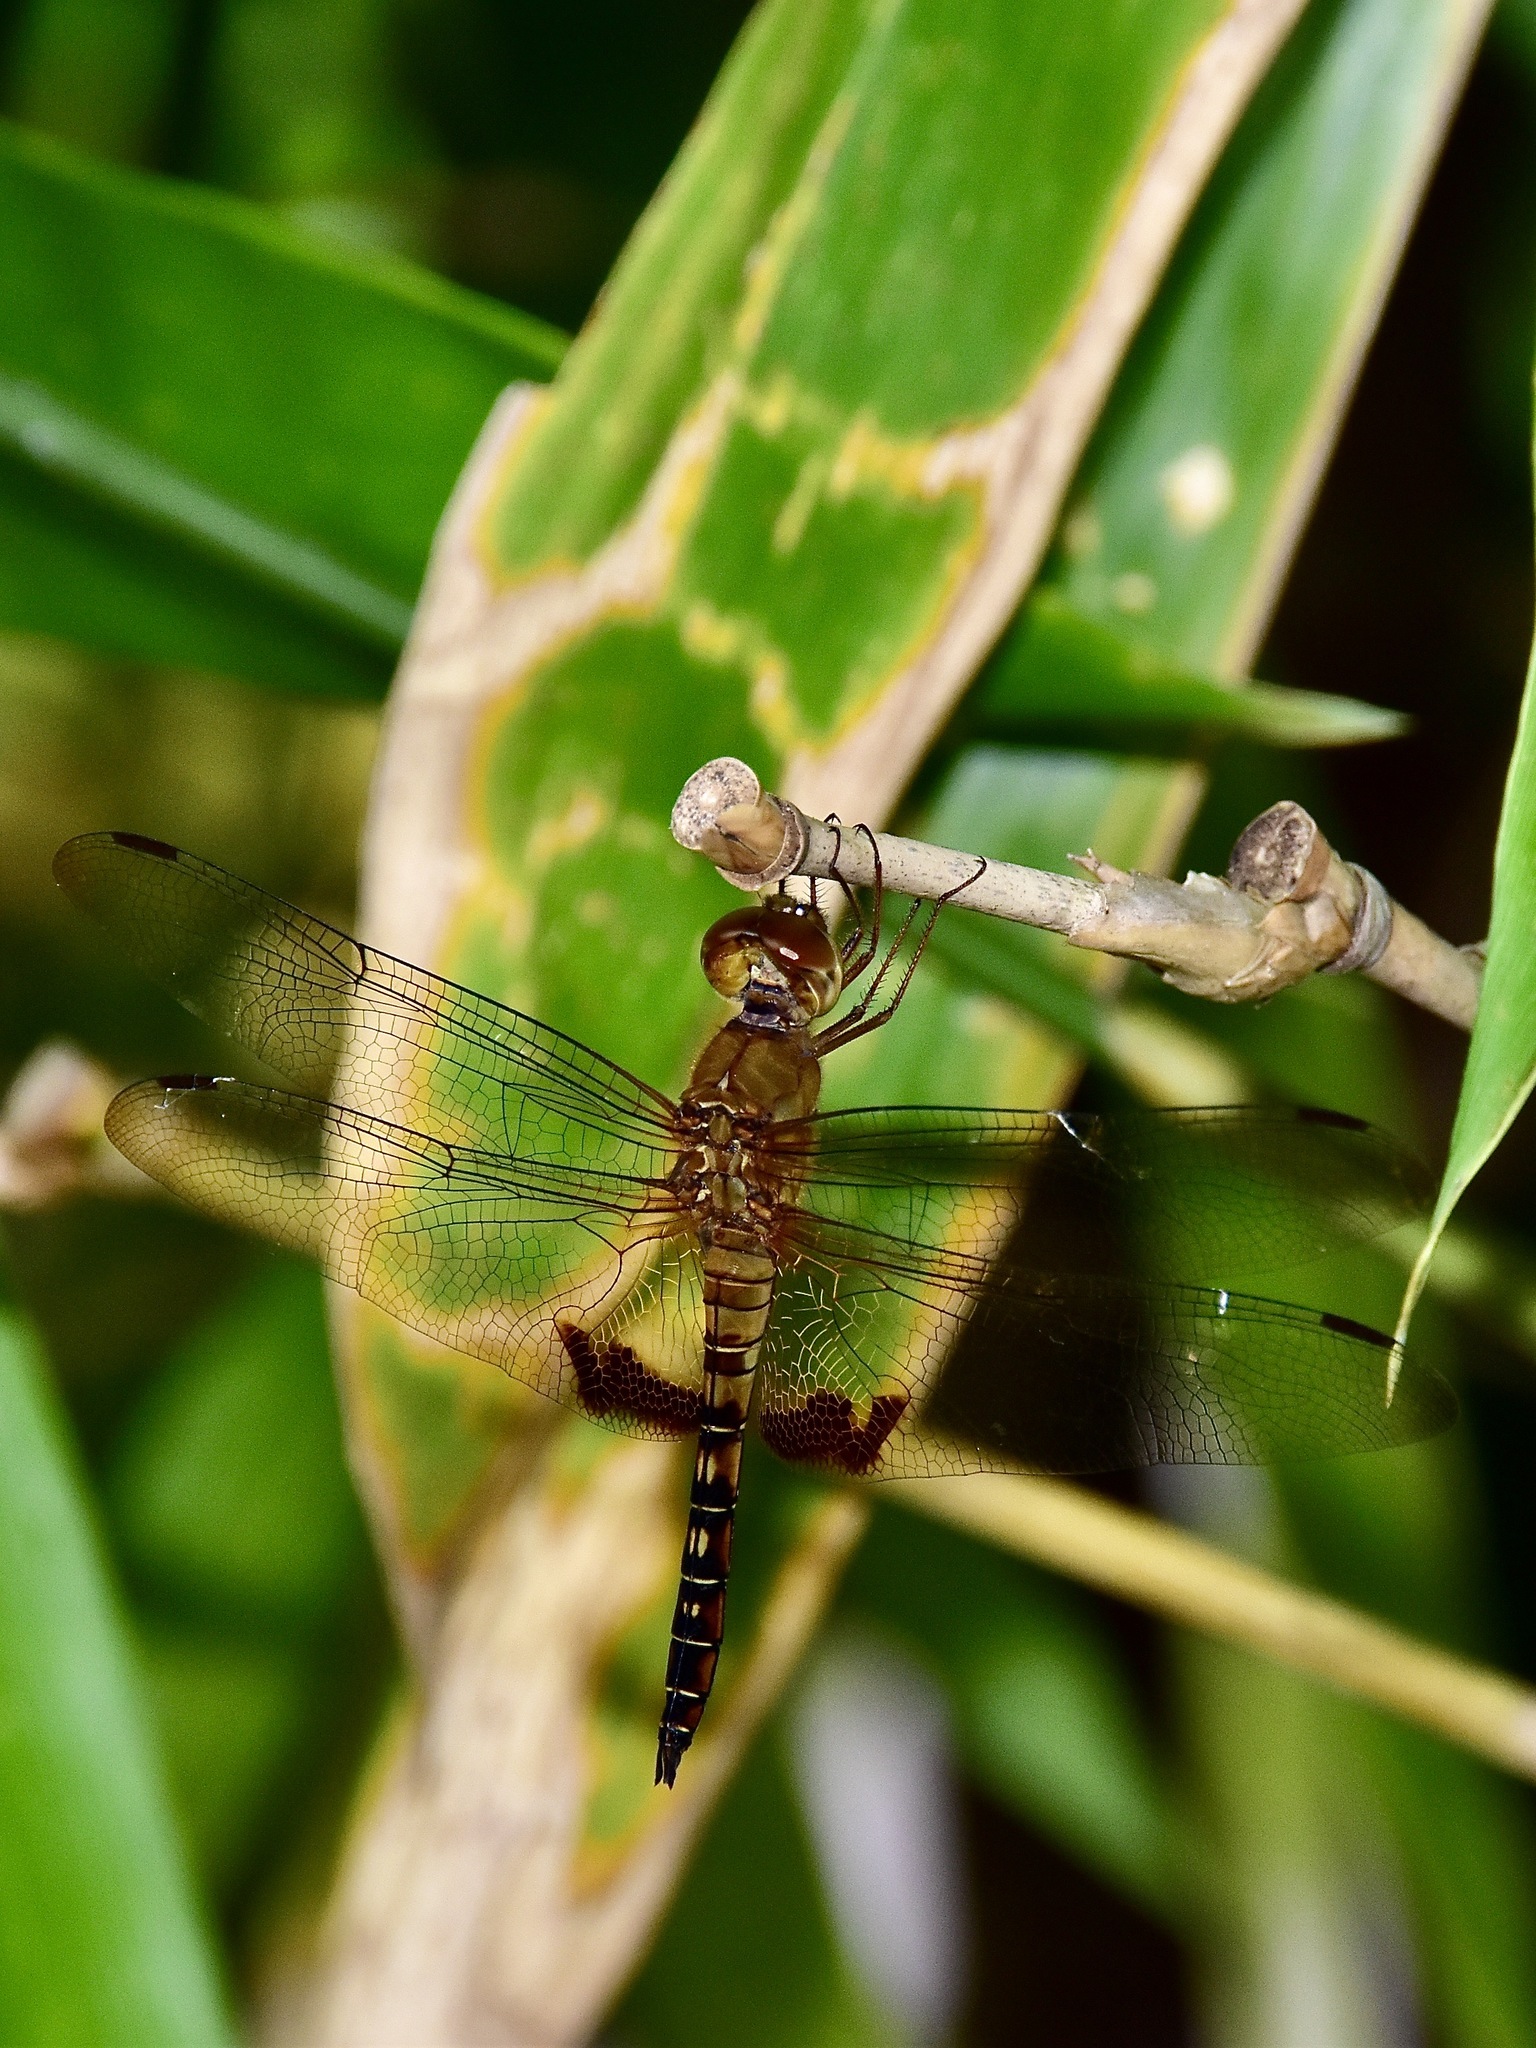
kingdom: Animalia
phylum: Arthropoda
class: Insecta
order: Odonata
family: Libellulidae
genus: Hydrobasileus
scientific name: Hydrobasileus croceus
